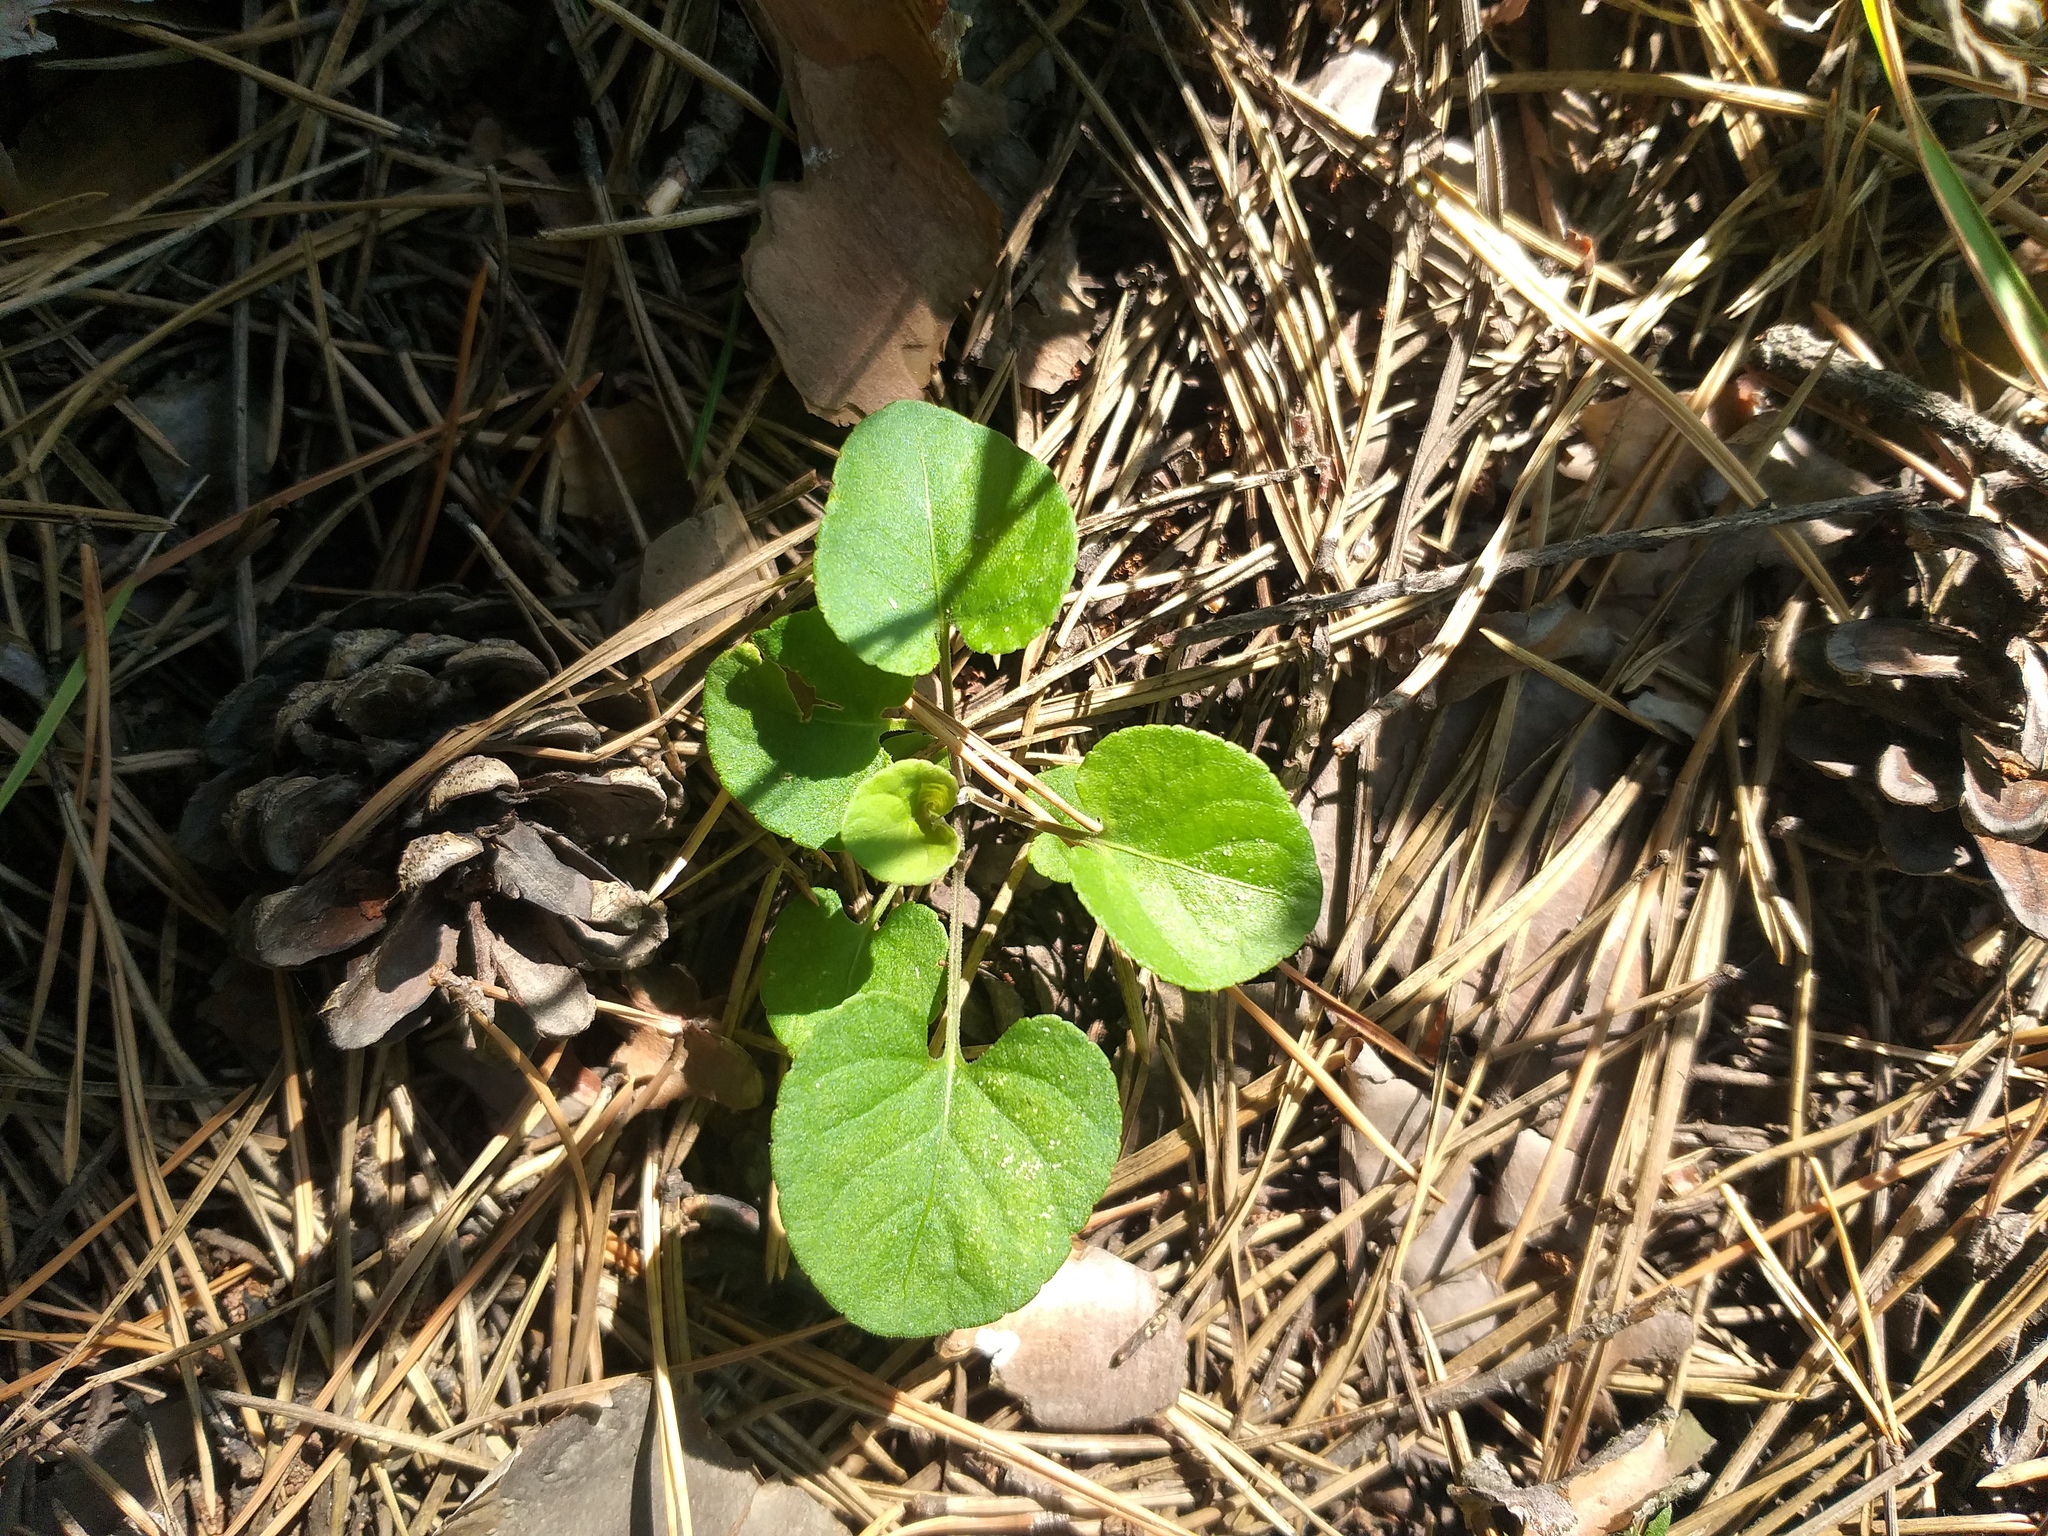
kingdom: Plantae
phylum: Tracheophyta
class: Magnoliopsida
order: Malpighiales
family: Violaceae
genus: Viola
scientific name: Viola rupestris
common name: Teesdale violet
